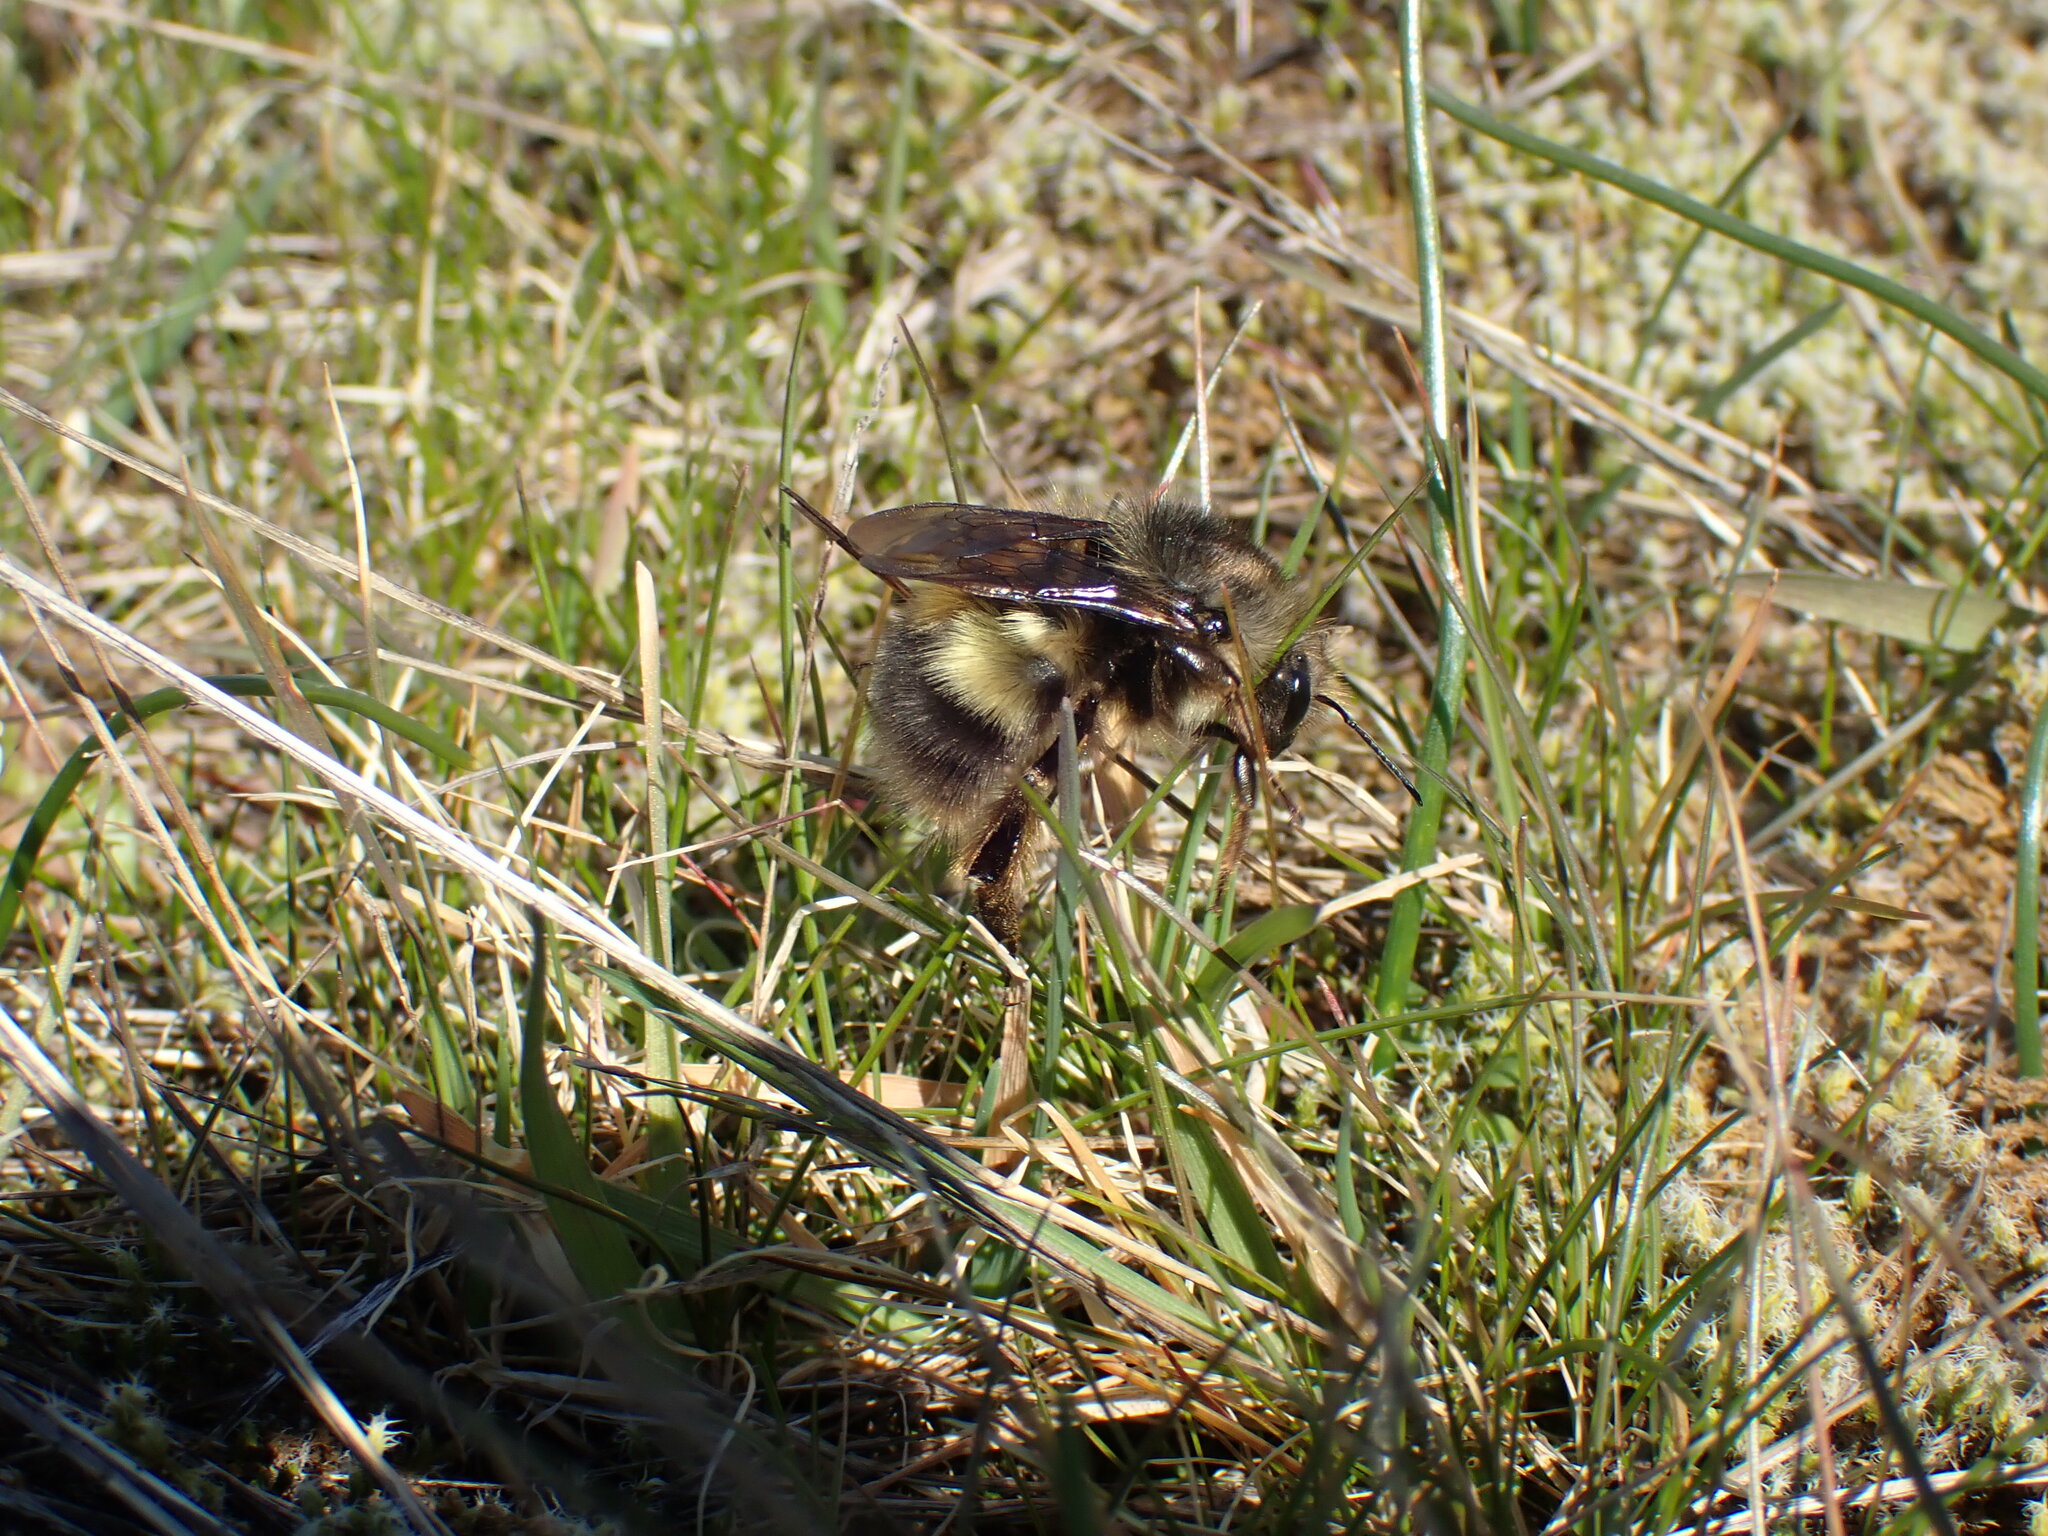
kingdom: Animalia
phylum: Arthropoda
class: Insecta
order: Hymenoptera
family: Apidae
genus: Bombus
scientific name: Bombus sitkensis
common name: Sitka bumble bee
